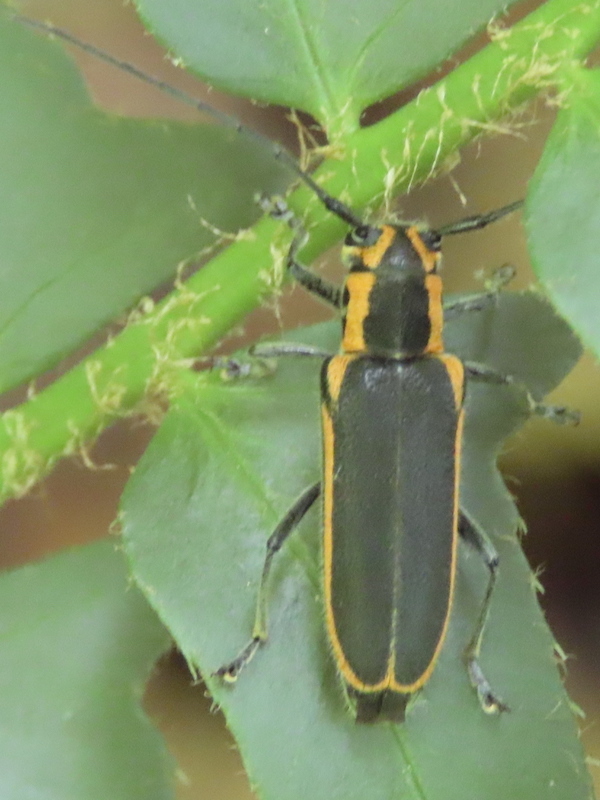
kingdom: Animalia
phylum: Arthropoda
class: Insecta
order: Coleoptera
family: Cerambycidae
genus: Saperda
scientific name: Saperda lateralis
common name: Red-edged saperda
